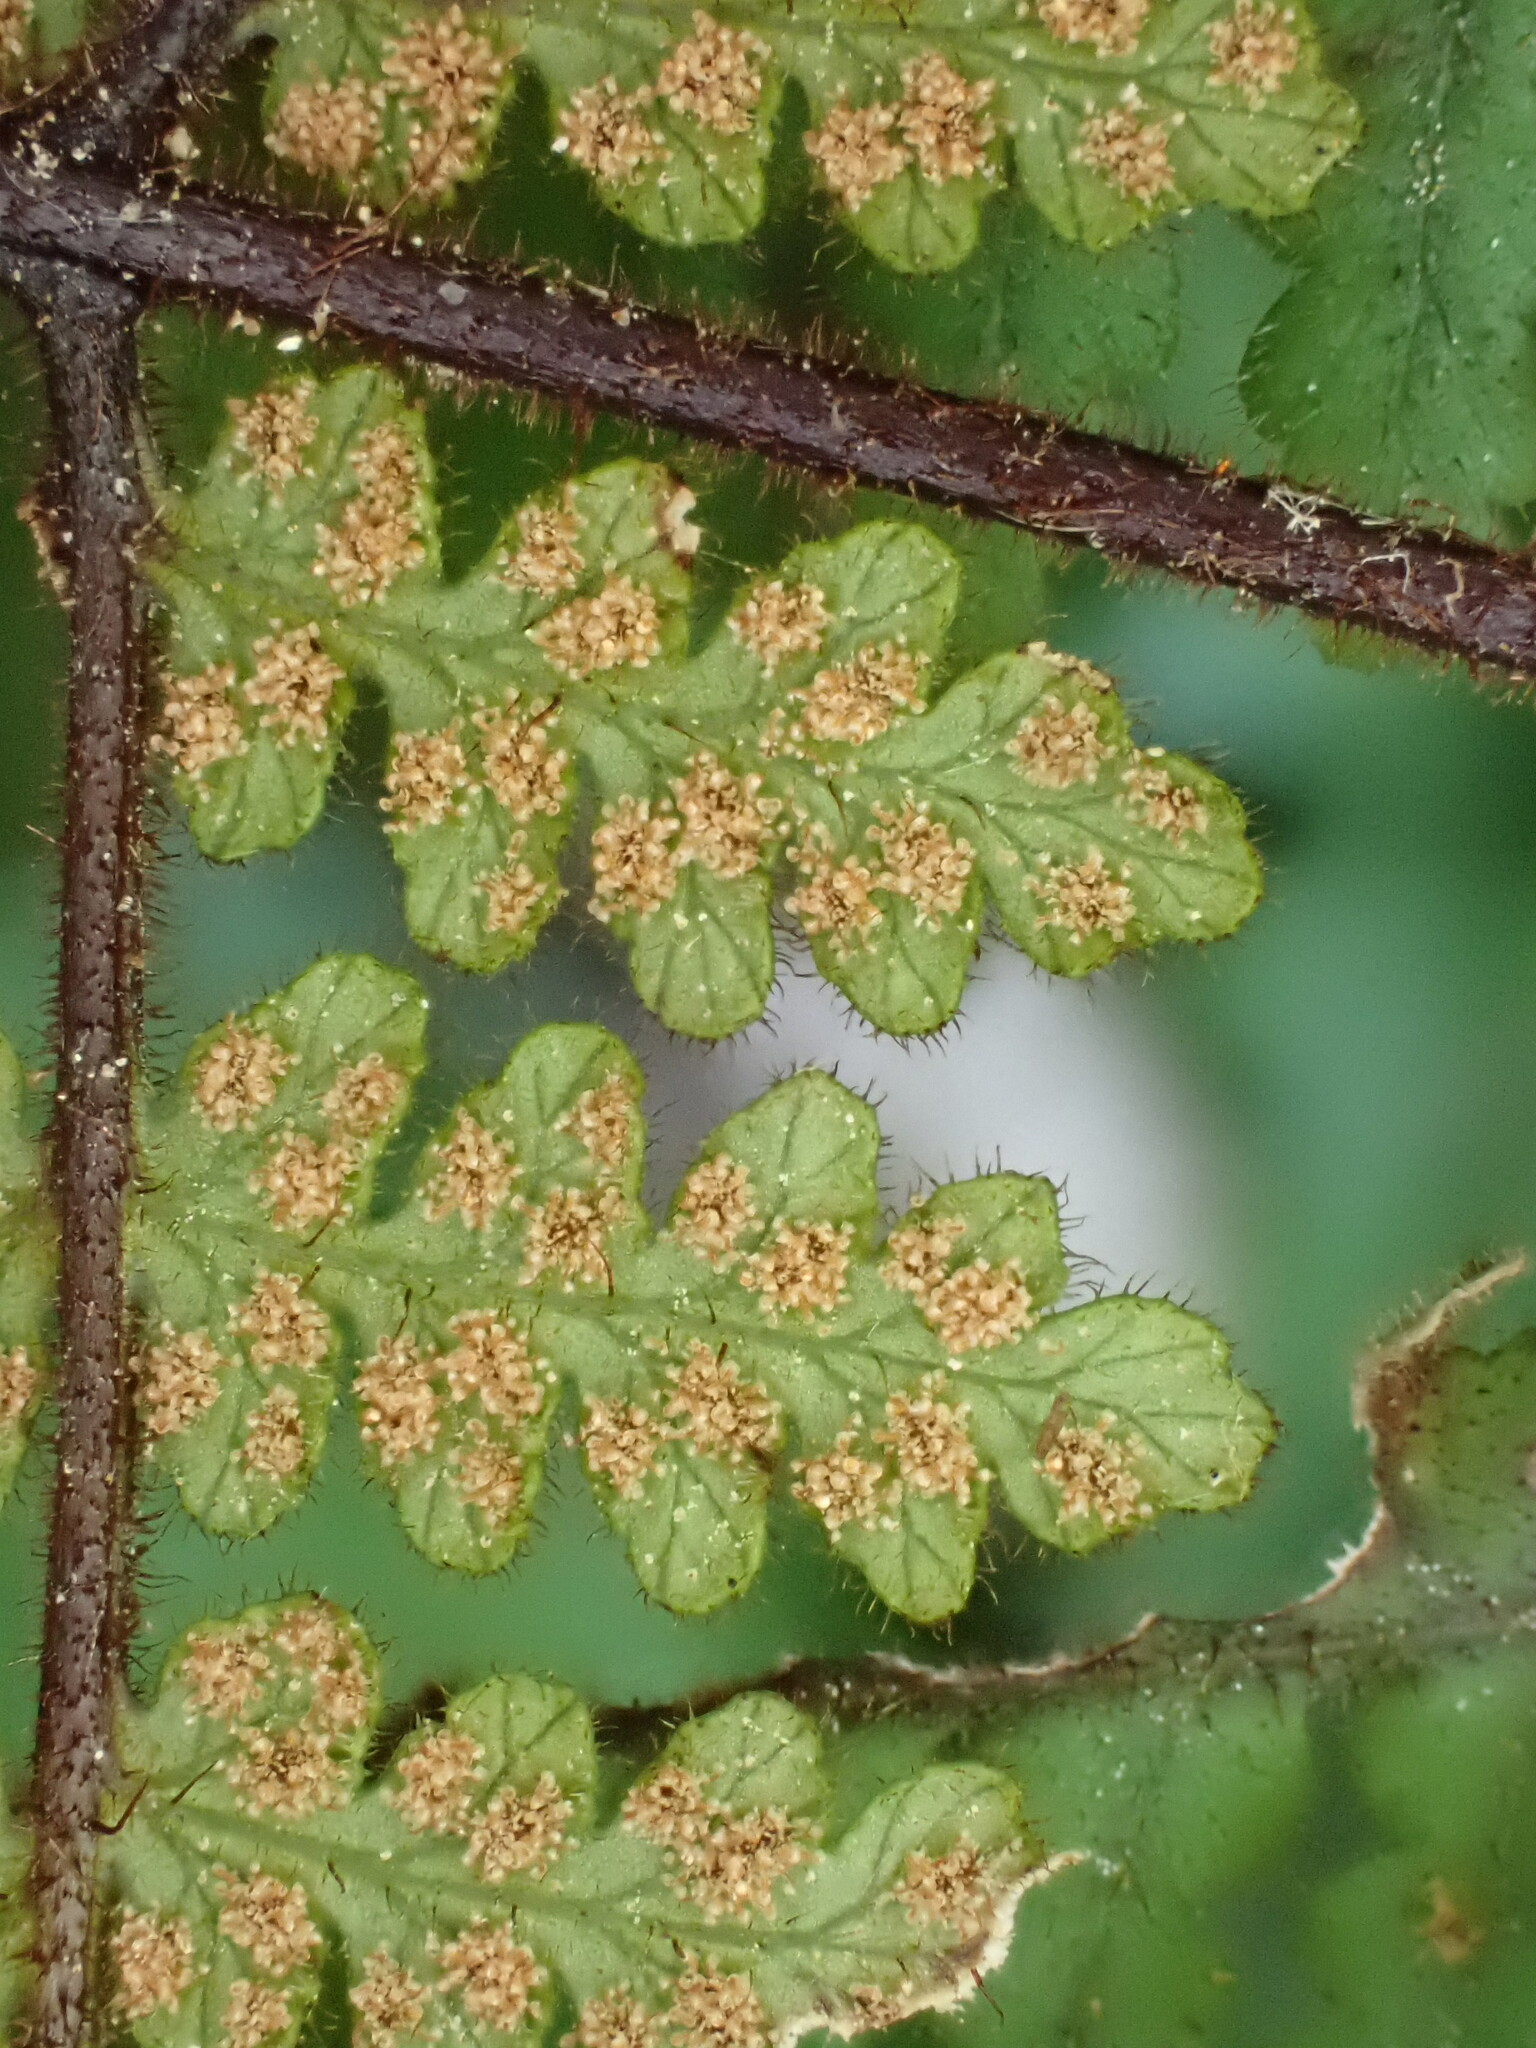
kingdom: Plantae
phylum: Tracheophyta
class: Polypodiopsida
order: Polypodiales
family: Dennstaedtiaceae
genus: Hypolepis
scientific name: Hypolepis rugosula
